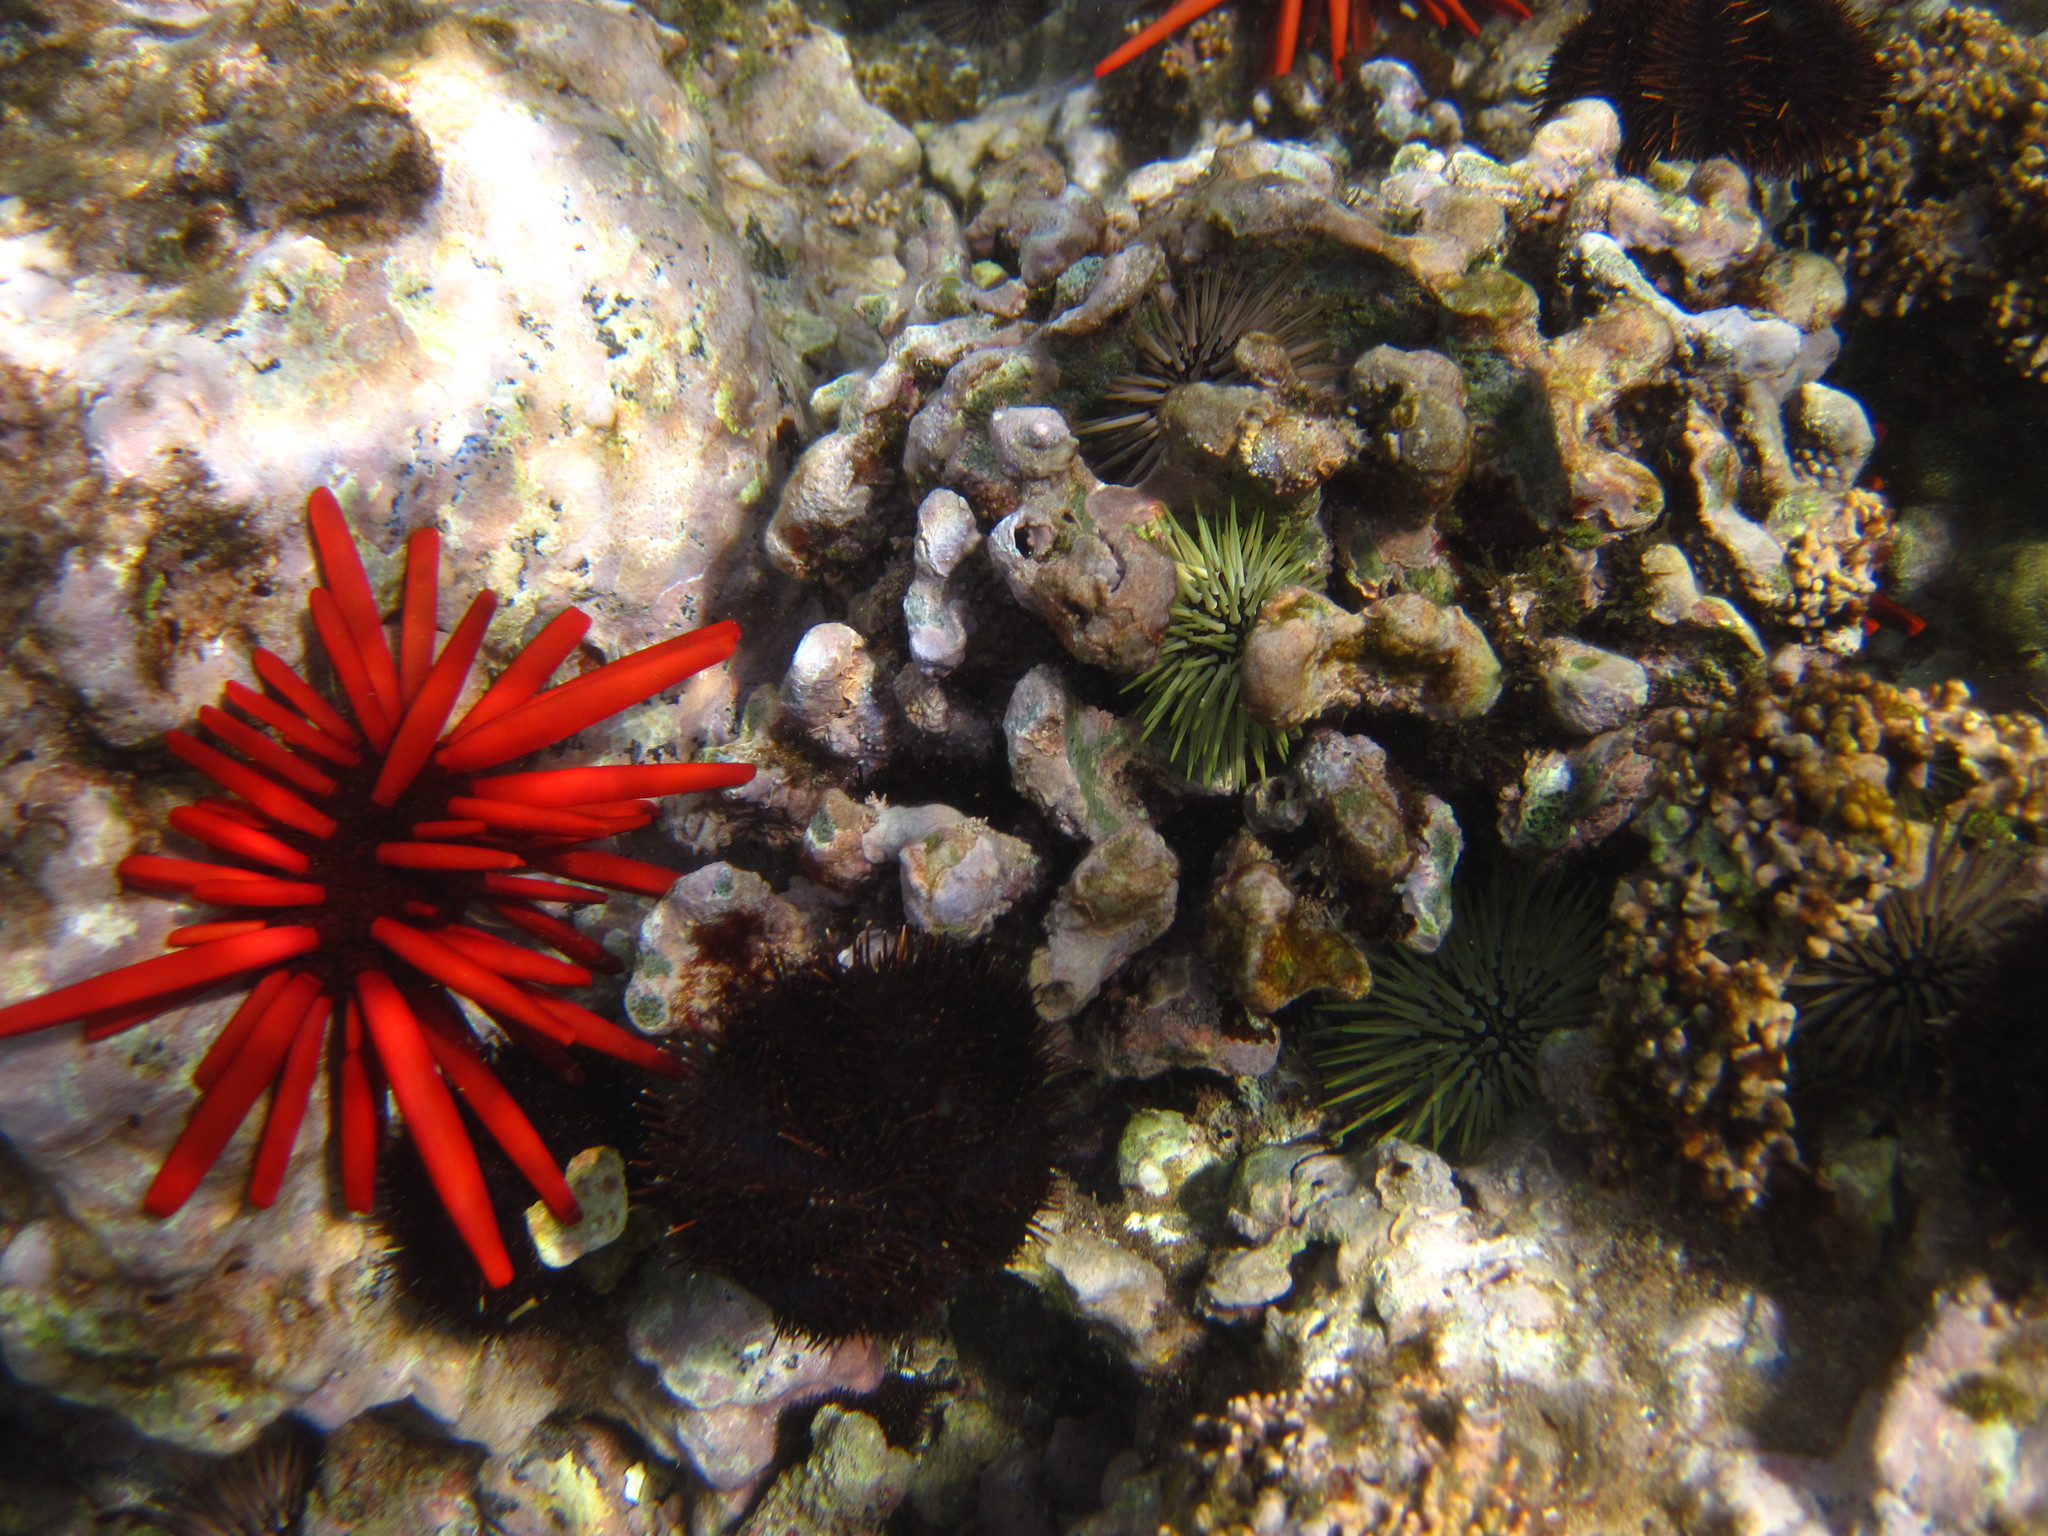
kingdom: Animalia
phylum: Echinodermata
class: Echinoidea
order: Camarodonta
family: Echinometridae
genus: Heterocentrotus
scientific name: Heterocentrotus mamillatus
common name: Slate pencil urchin
